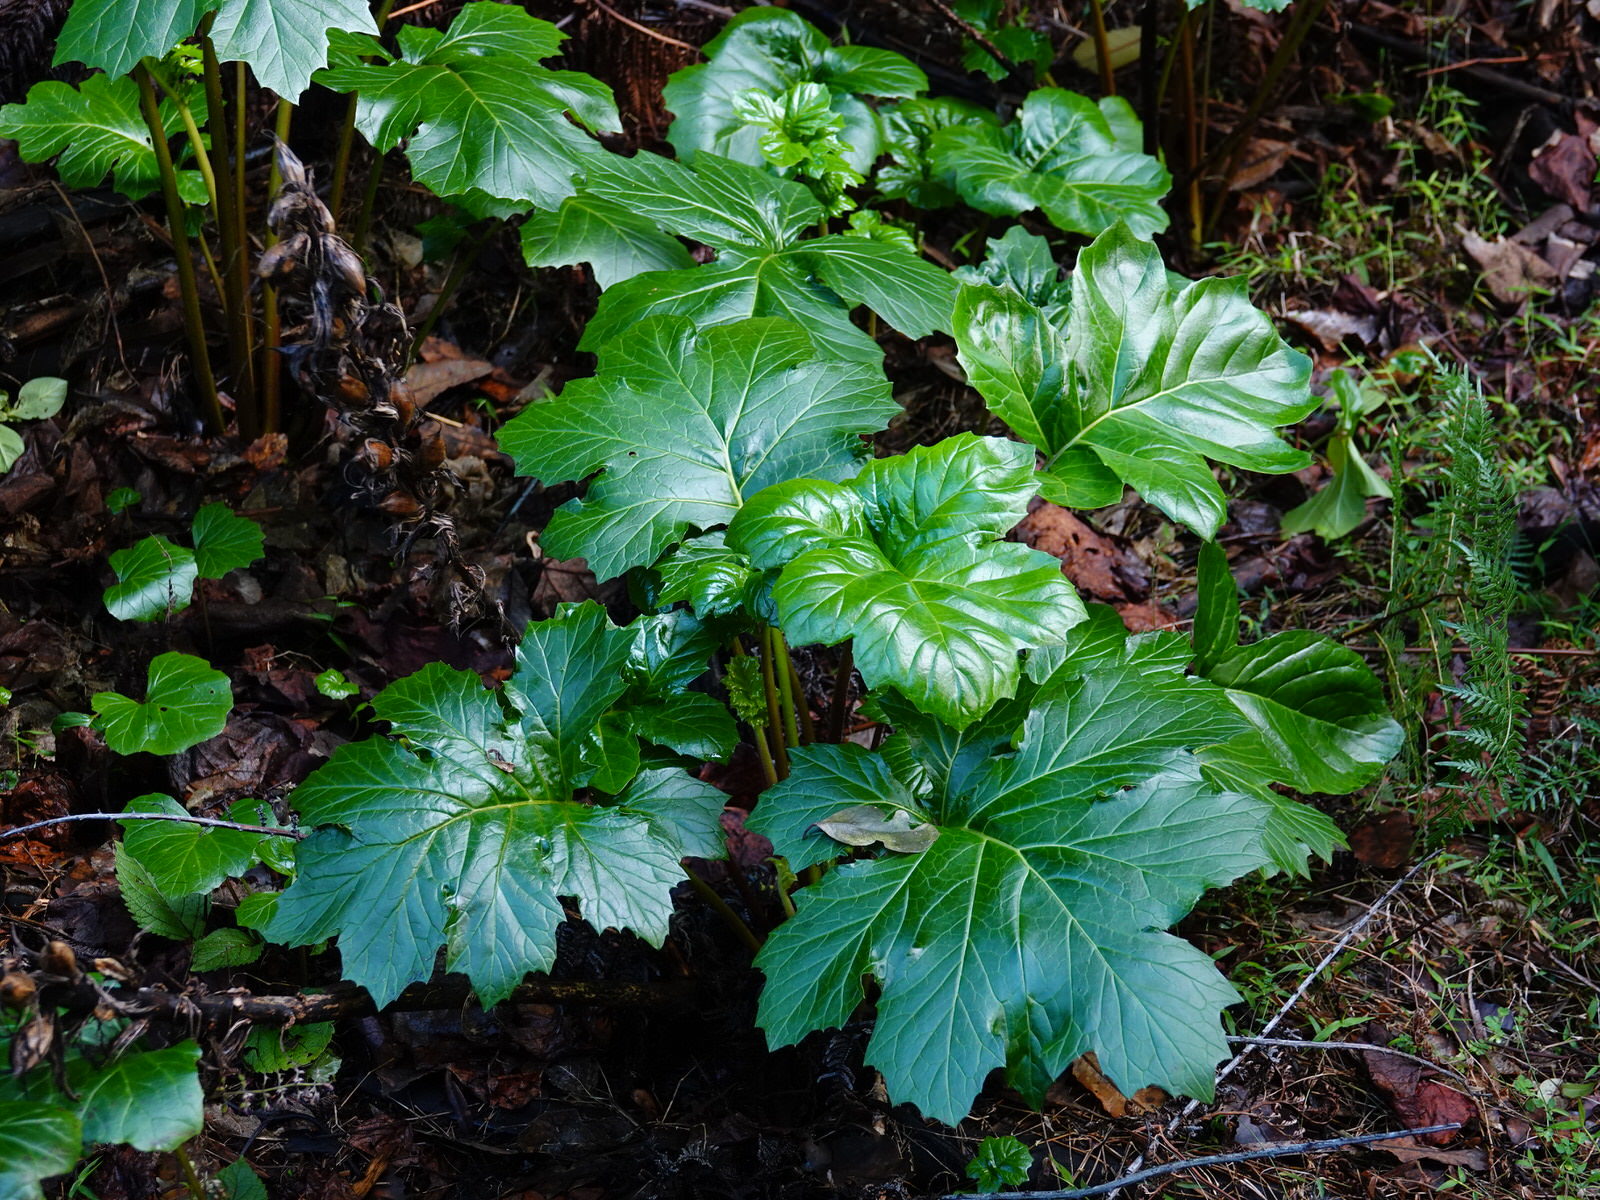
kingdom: Plantae
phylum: Tracheophyta
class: Magnoliopsida
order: Lamiales
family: Acanthaceae
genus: Acanthus
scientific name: Acanthus mollis
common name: Bear's-breech
